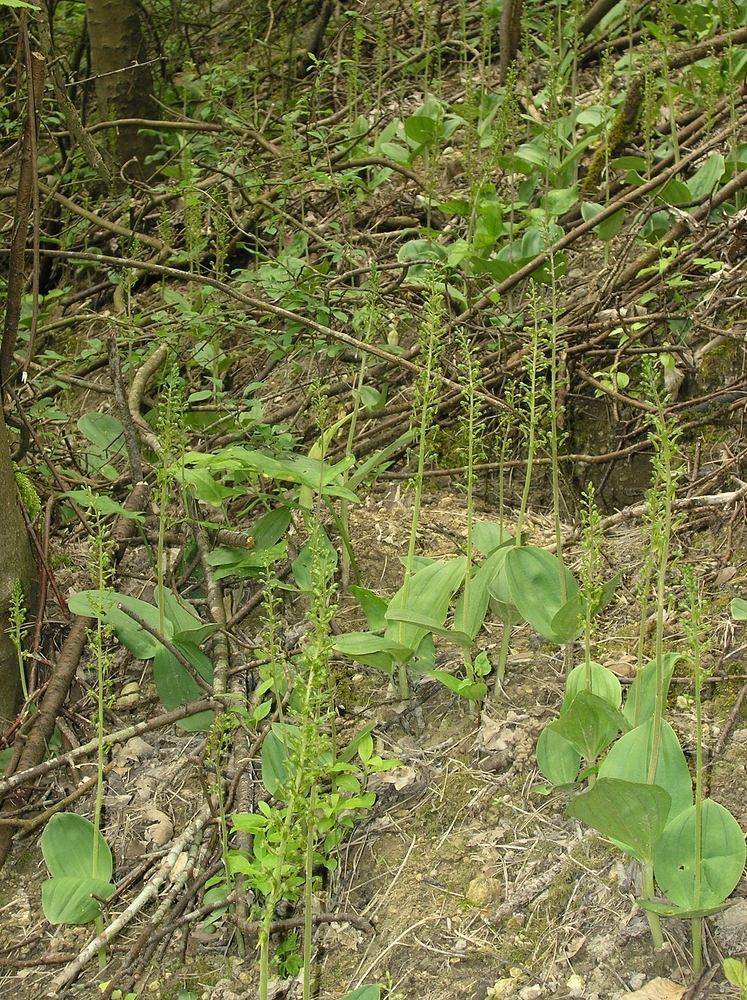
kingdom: Plantae
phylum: Tracheophyta
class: Liliopsida
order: Asparagales
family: Orchidaceae
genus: Neottia
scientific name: Neottia ovata
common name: Common twayblade
